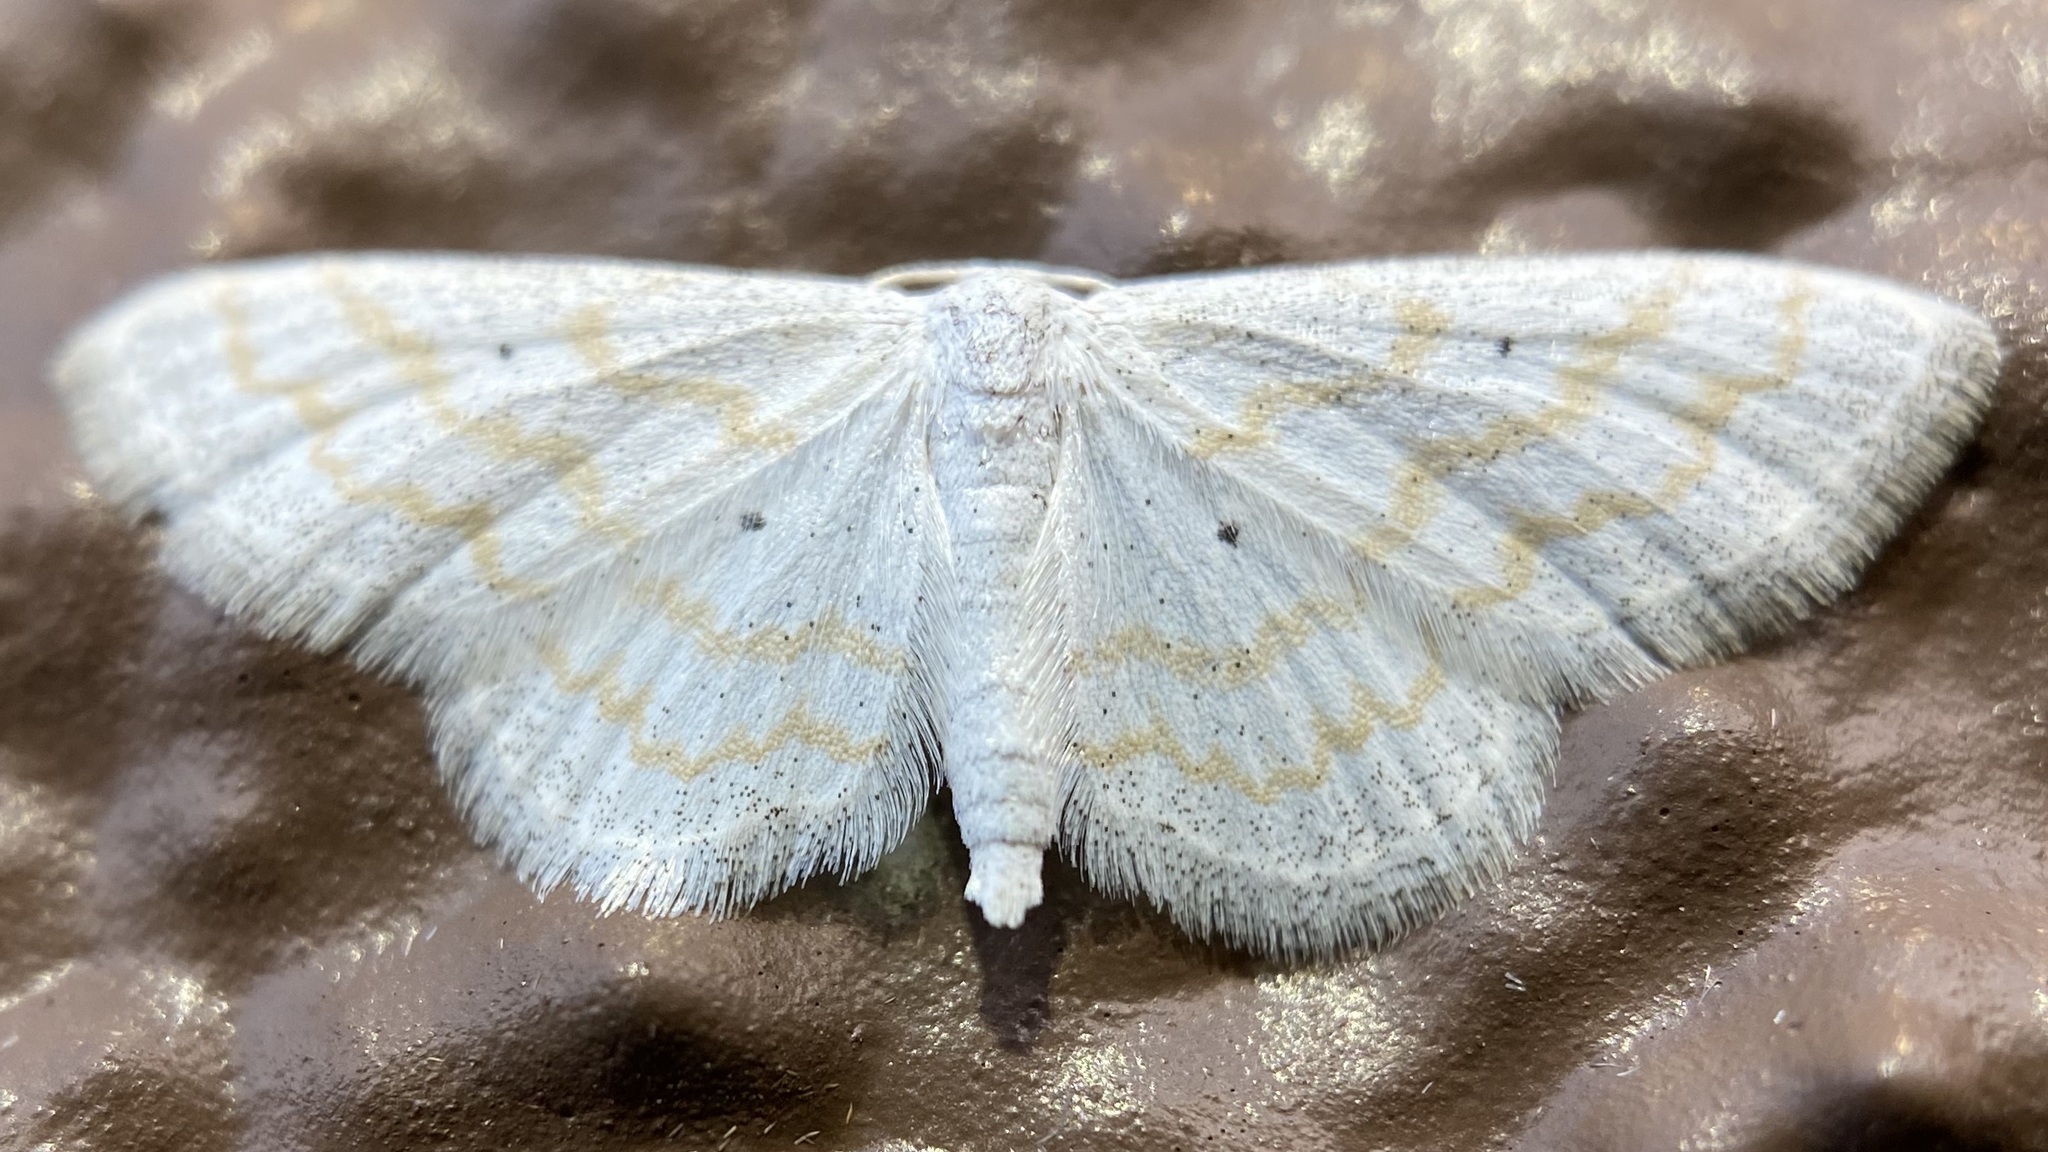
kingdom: Animalia
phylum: Arthropoda
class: Insecta
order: Lepidoptera
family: Geometridae
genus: Lobocleta
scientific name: Lobocleta peralbata
